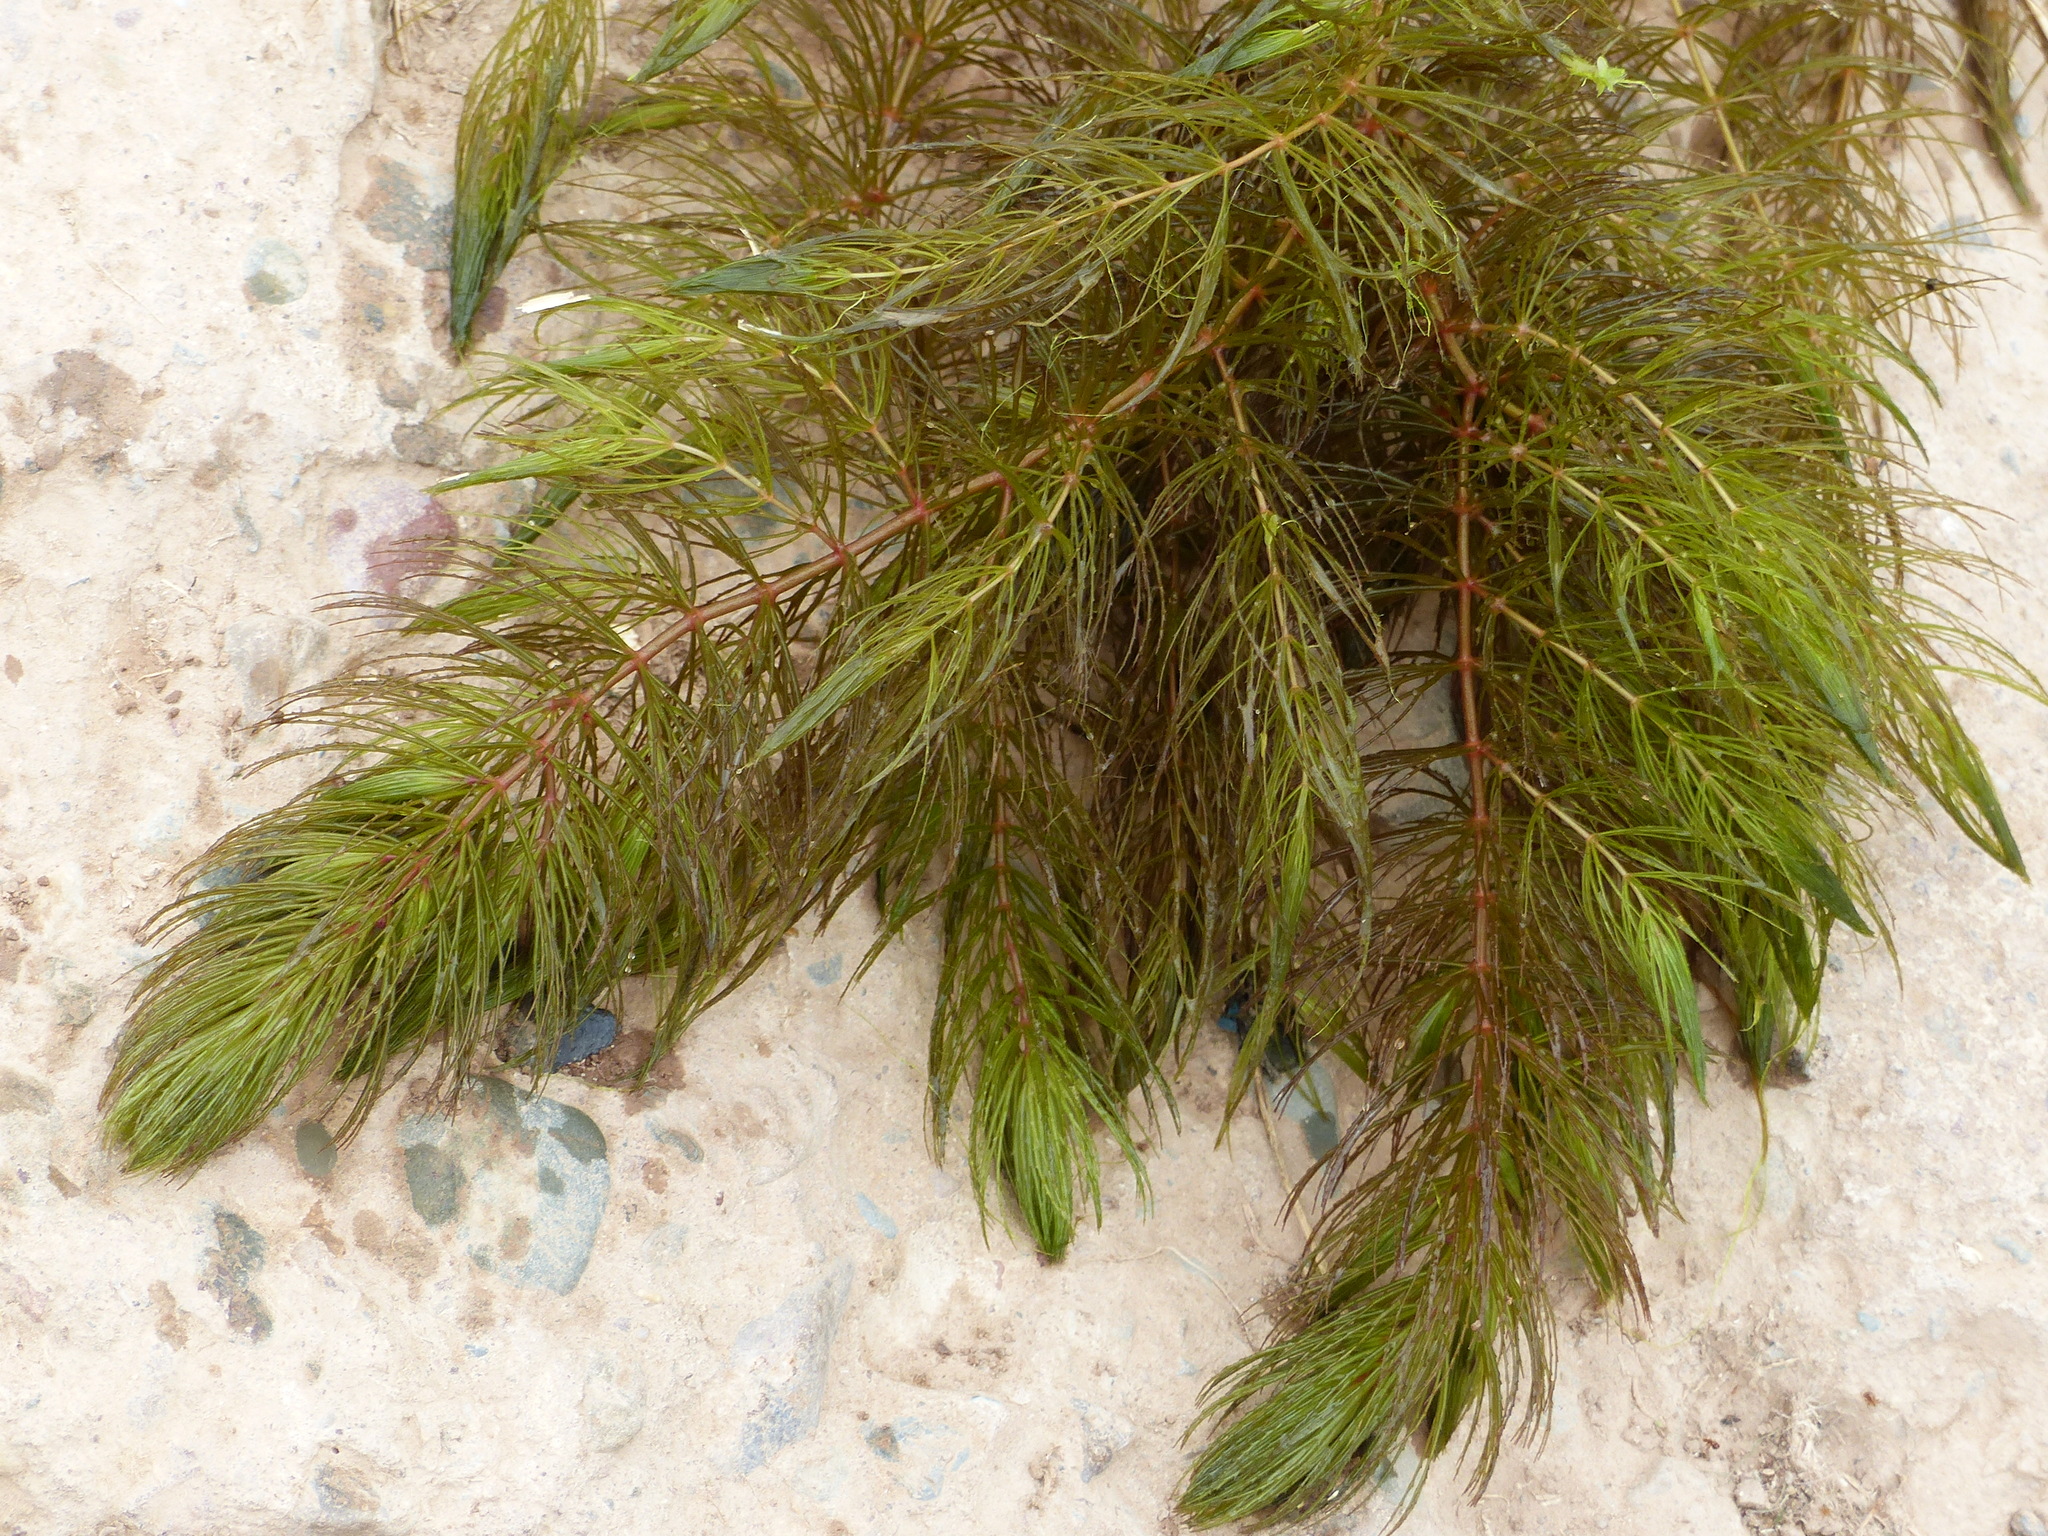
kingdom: Plantae
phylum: Tracheophyta
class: Magnoliopsida
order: Ceratophyllales
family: Ceratophyllaceae
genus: Ceratophyllum
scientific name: Ceratophyllum demersum
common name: Rigid hornwort
